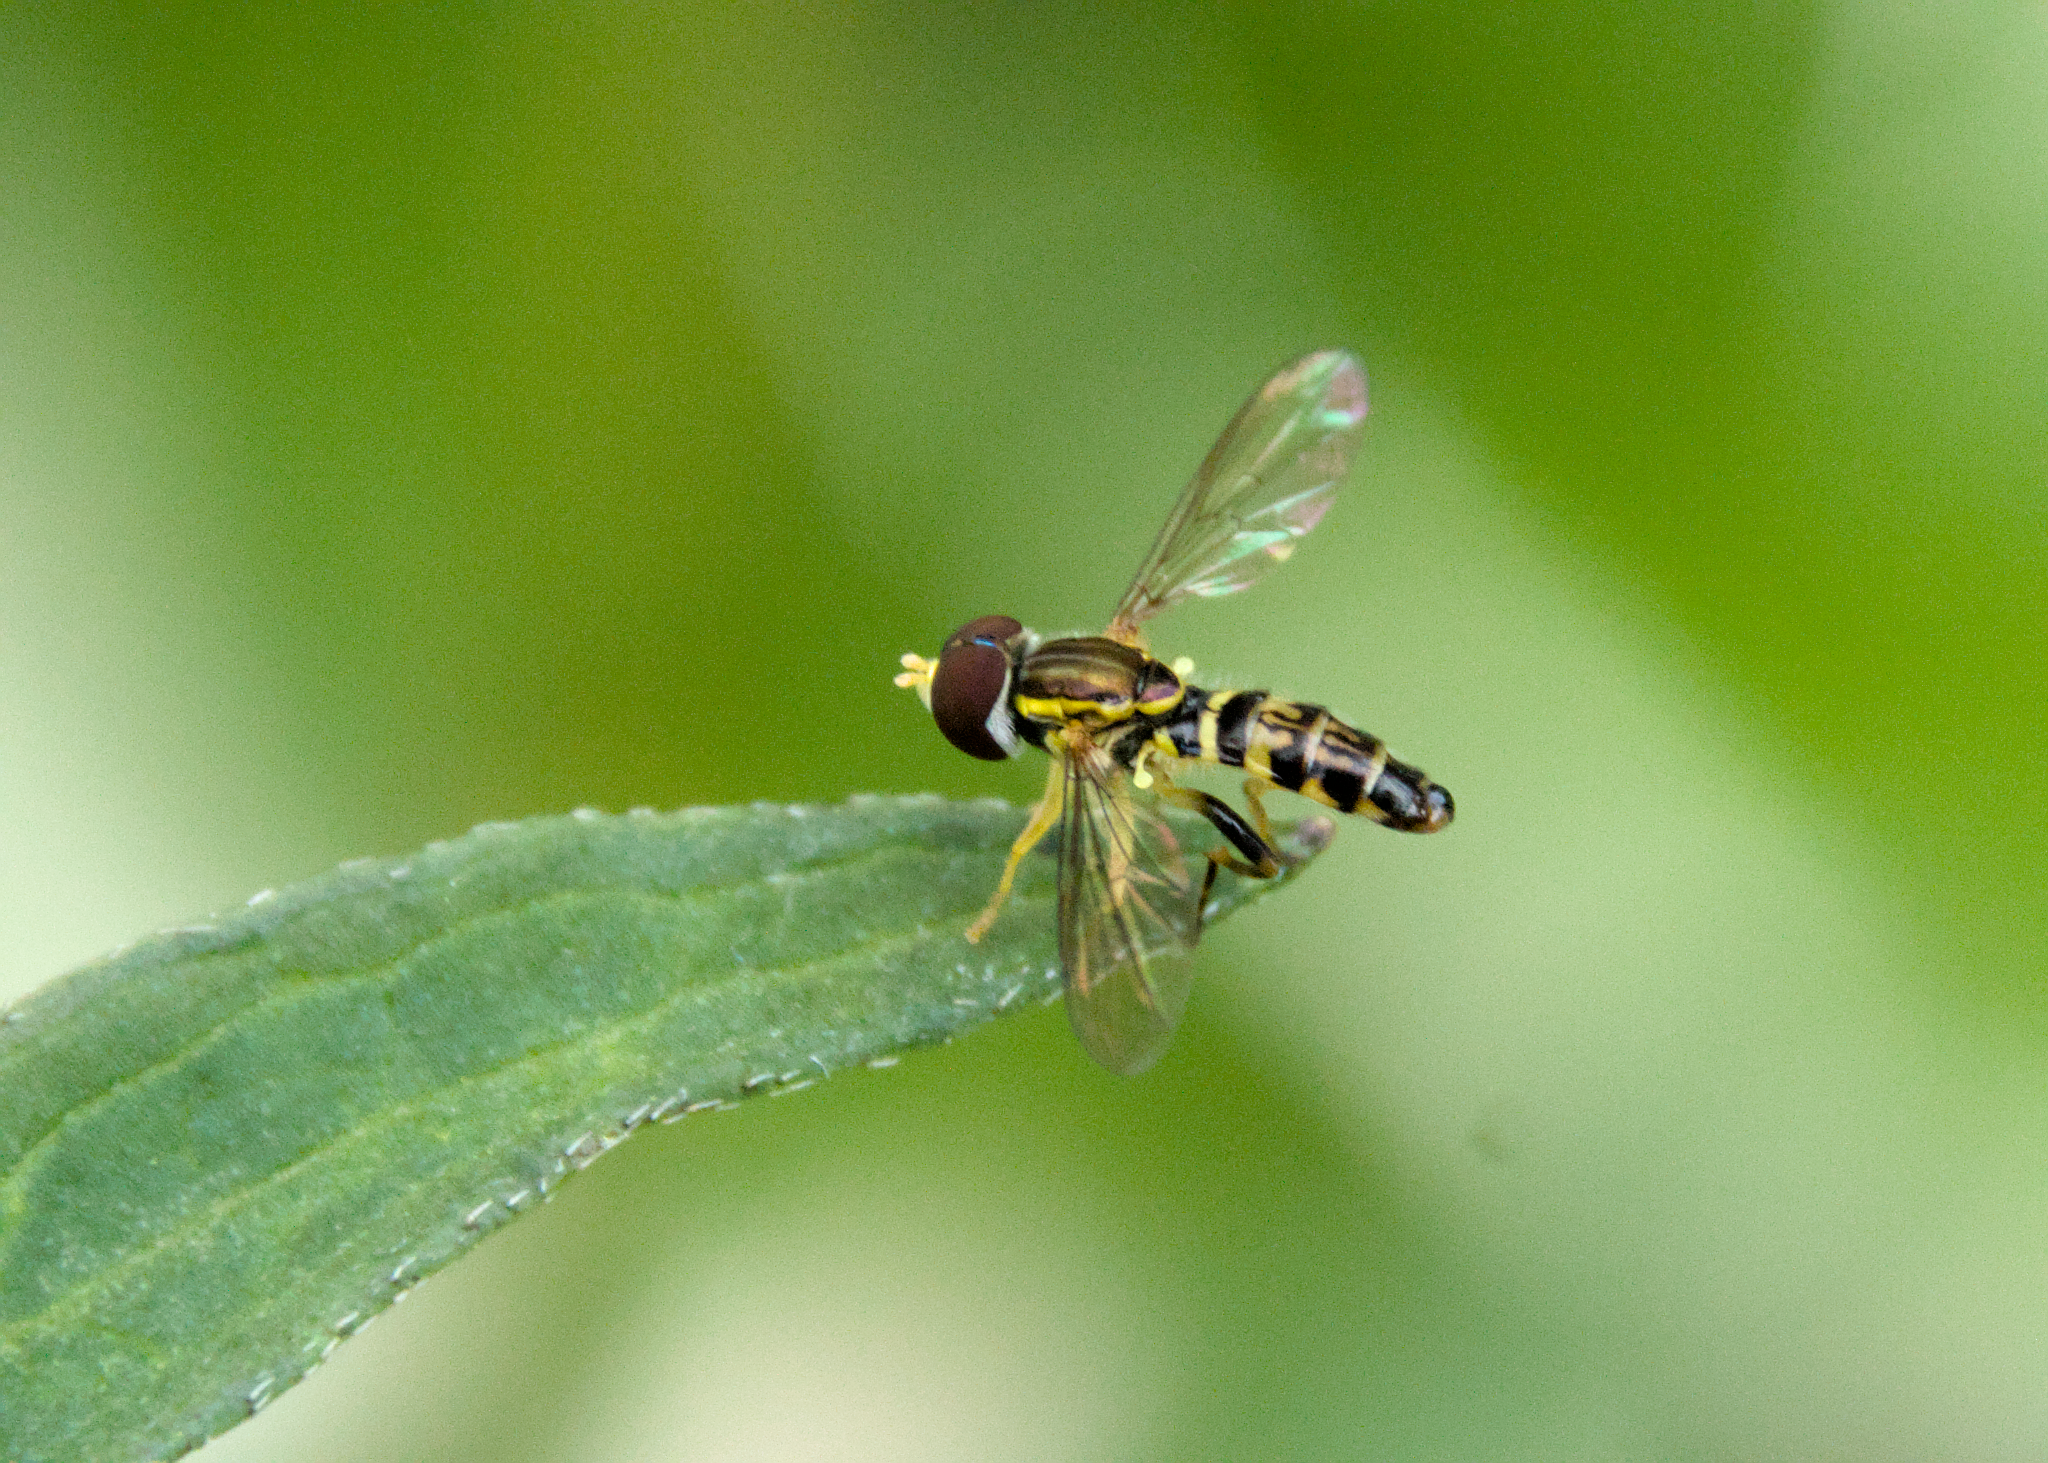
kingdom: Animalia
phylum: Arthropoda
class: Insecta
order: Diptera
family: Syrphidae
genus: Toxomerus
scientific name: Toxomerus geminatus
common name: Eastern calligrapher
